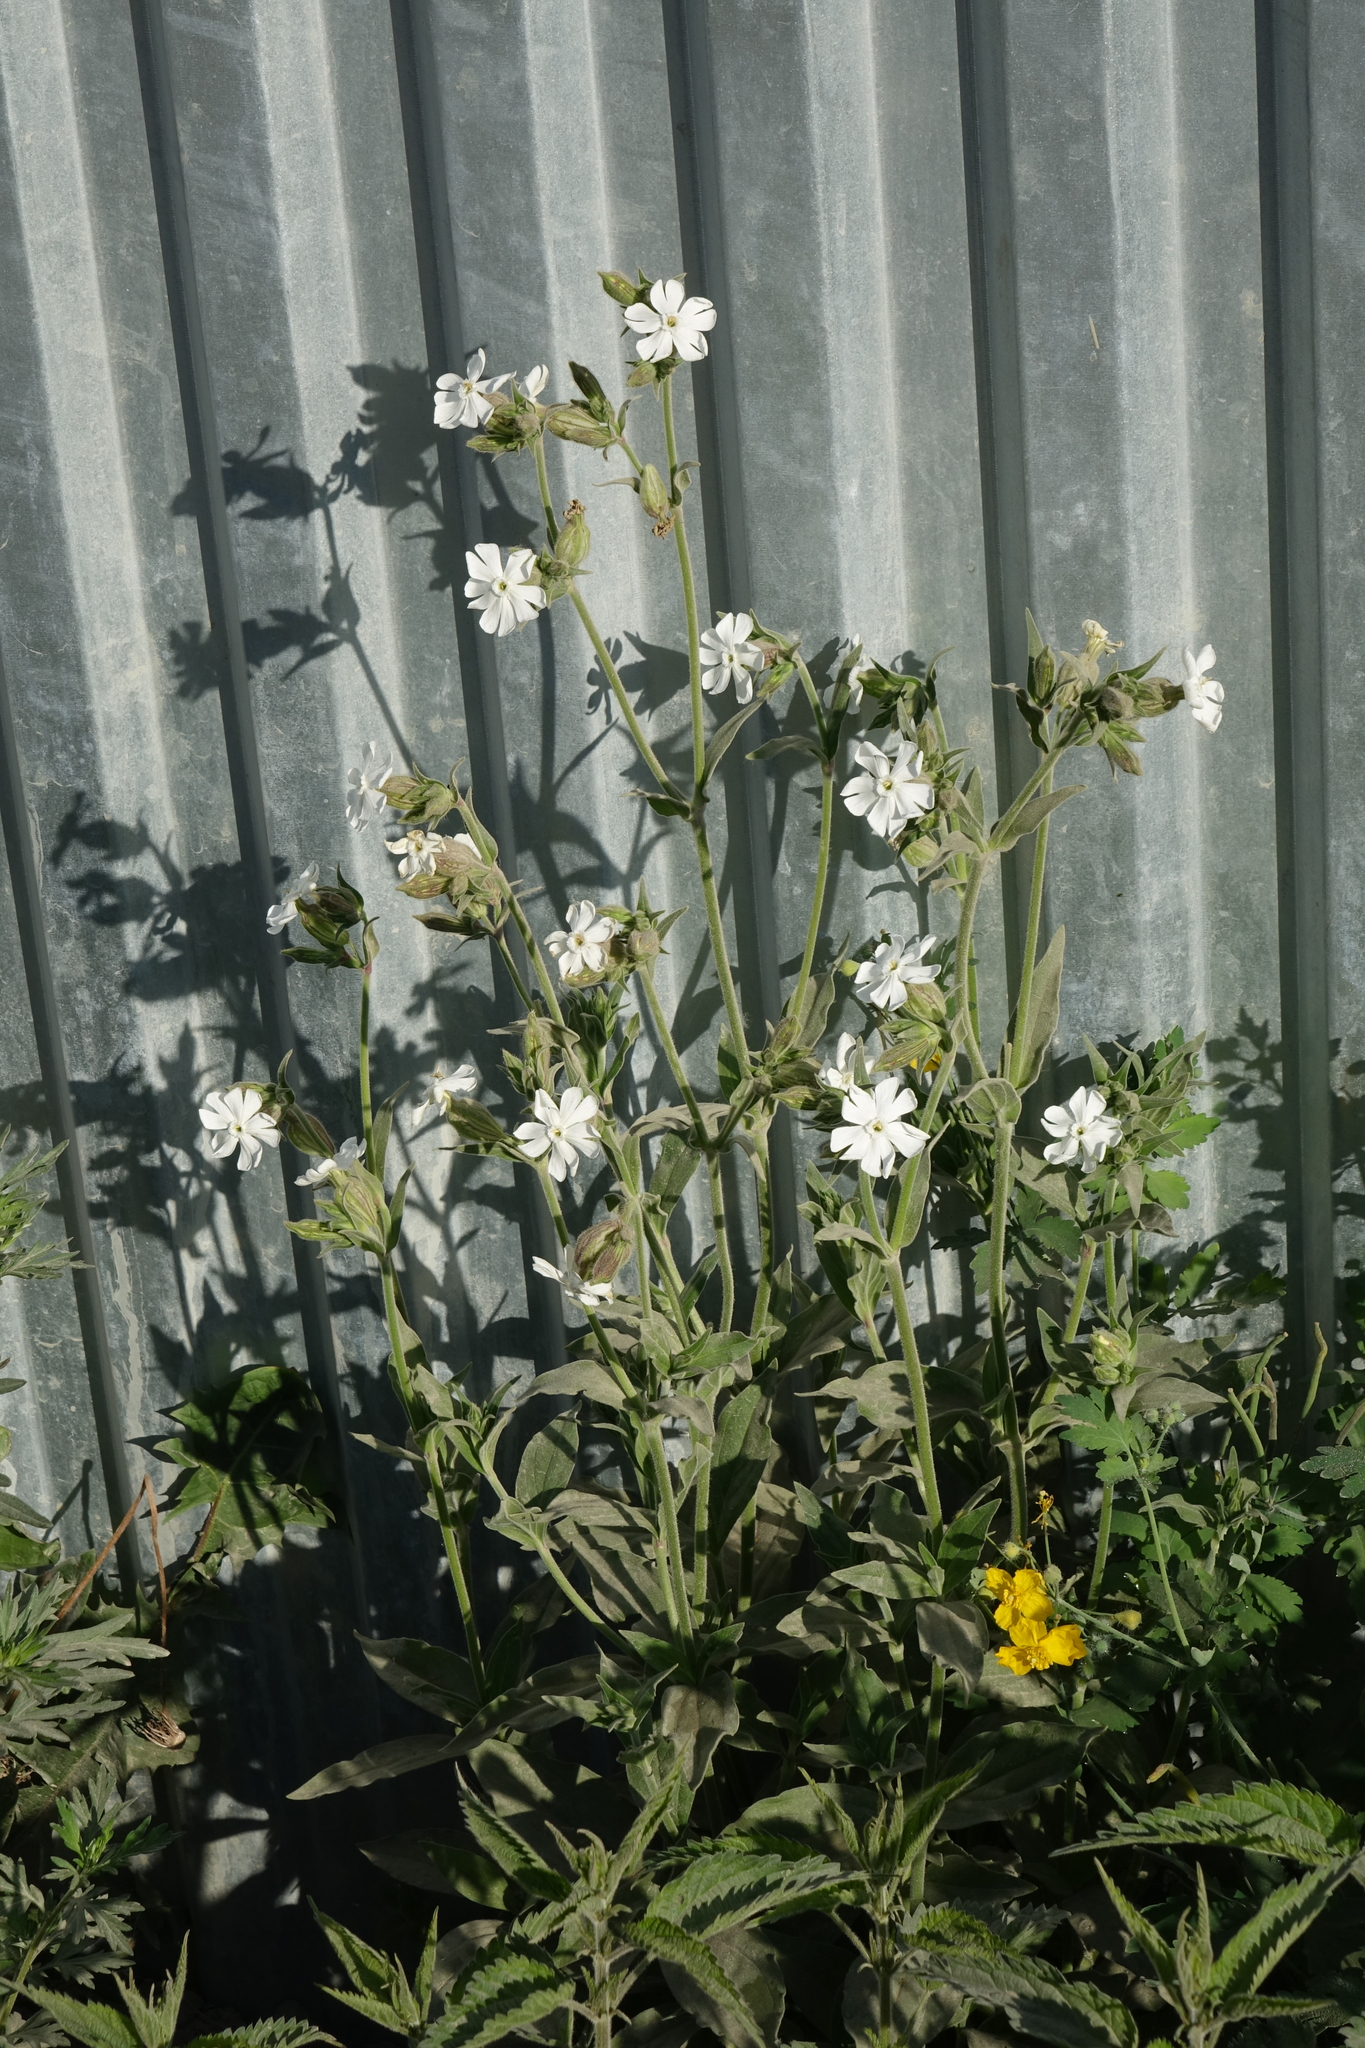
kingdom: Plantae
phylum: Tracheophyta
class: Magnoliopsida
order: Caryophyllales
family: Caryophyllaceae
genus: Silene
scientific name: Silene latifolia
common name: White campion
